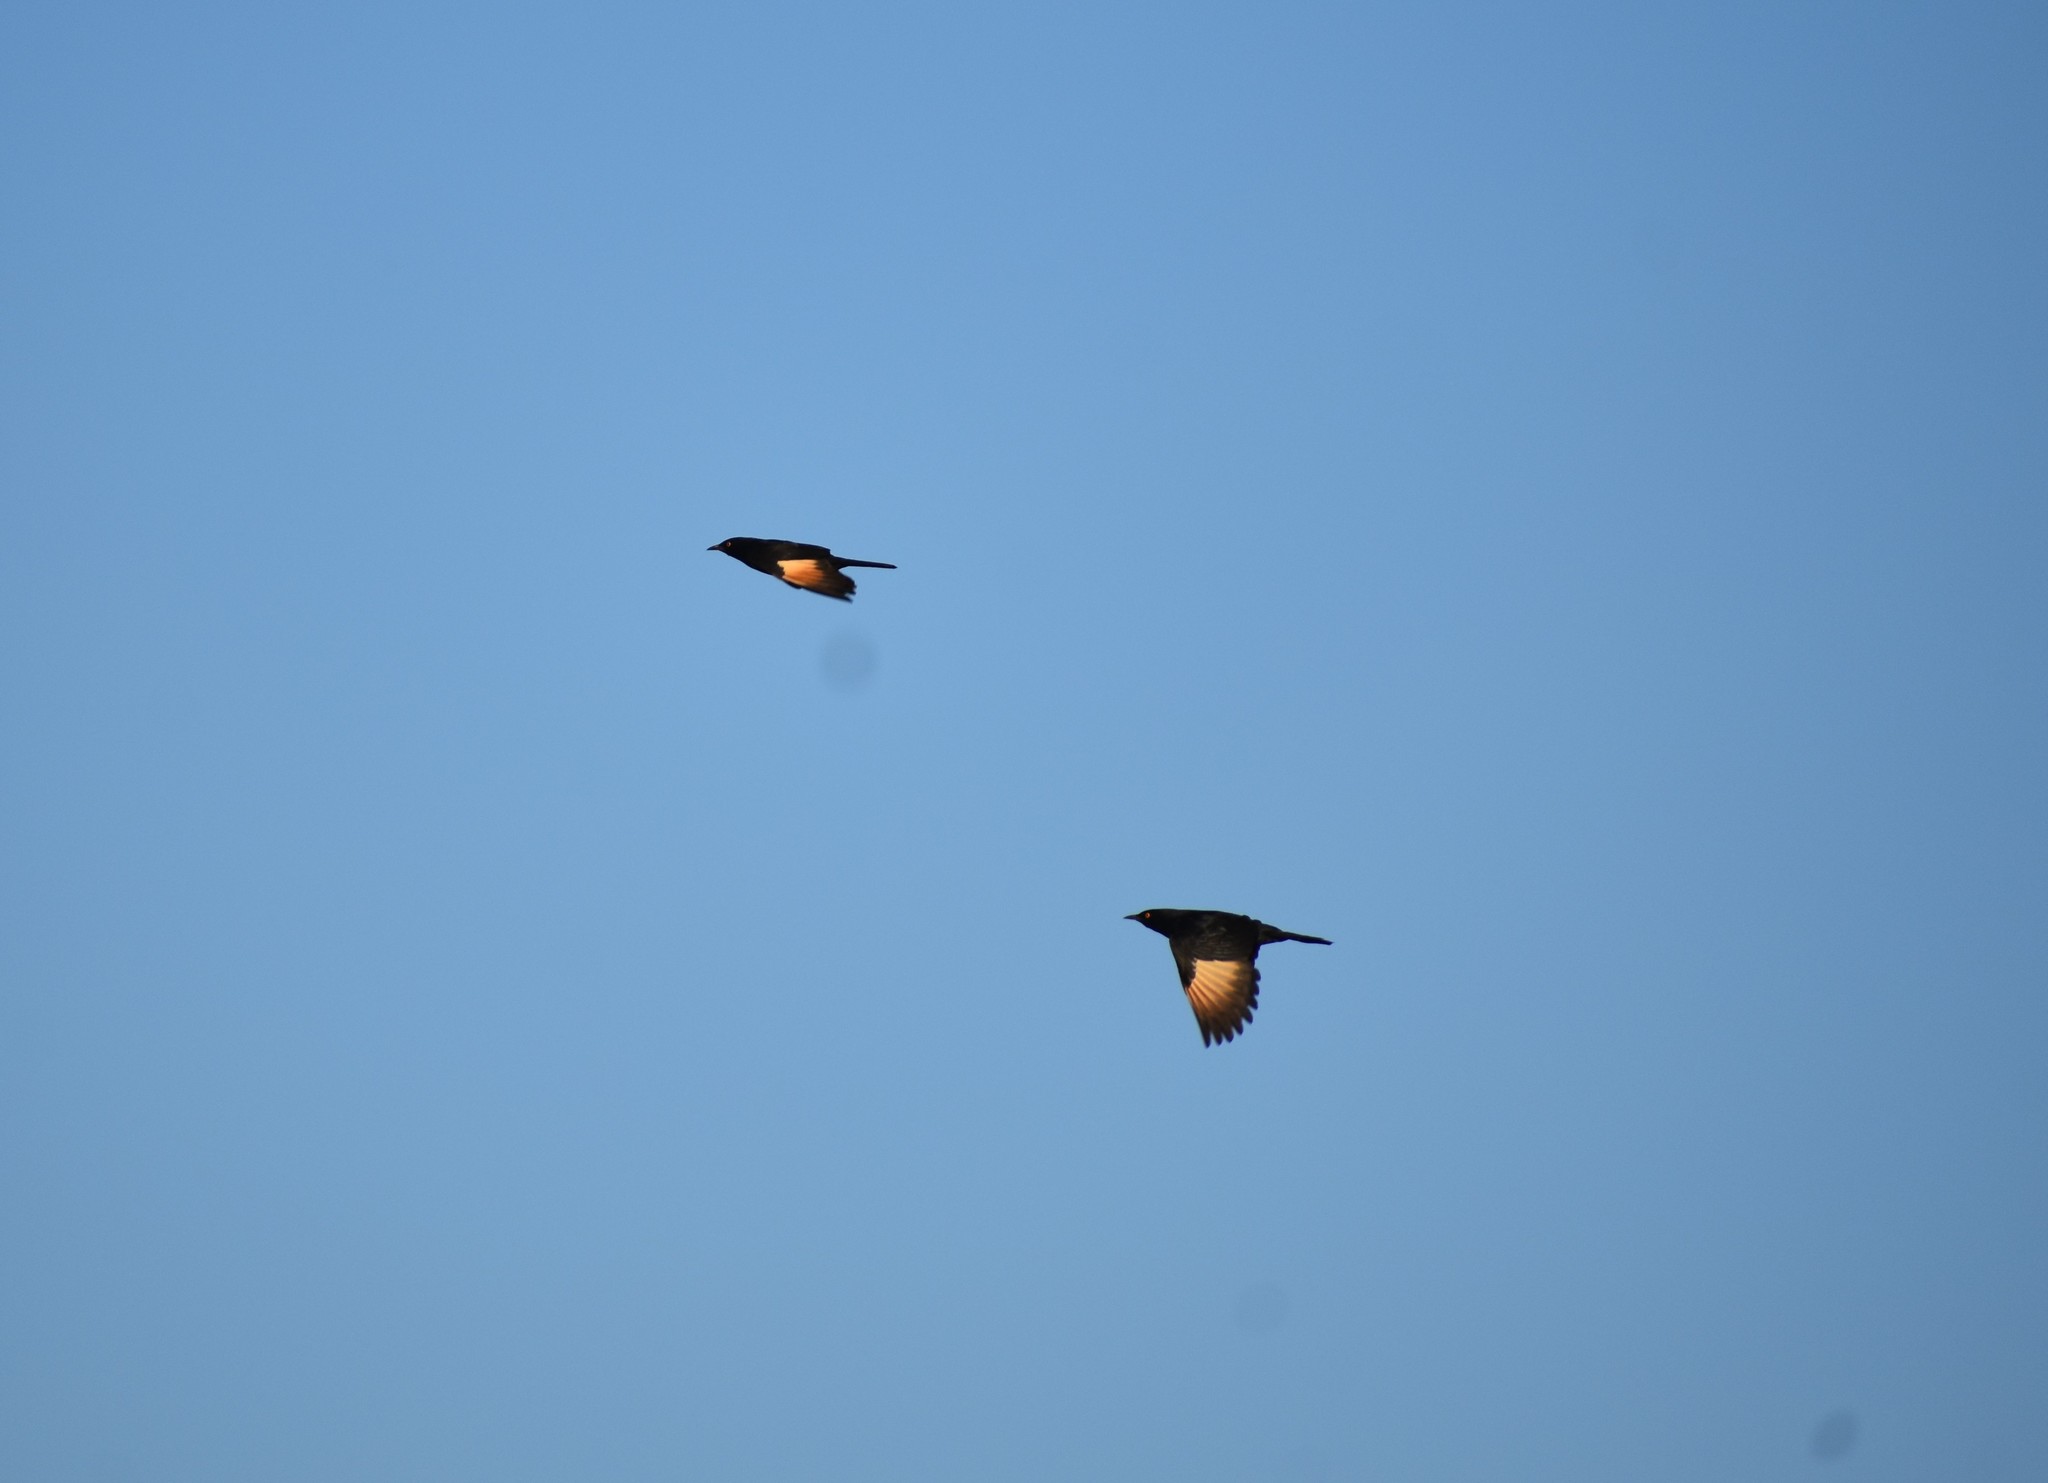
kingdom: Animalia
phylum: Chordata
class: Aves
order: Passeriformes
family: Sturnidae
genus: Onychognathus
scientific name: Onychognathus nabouroup
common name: Pale-winged starling
